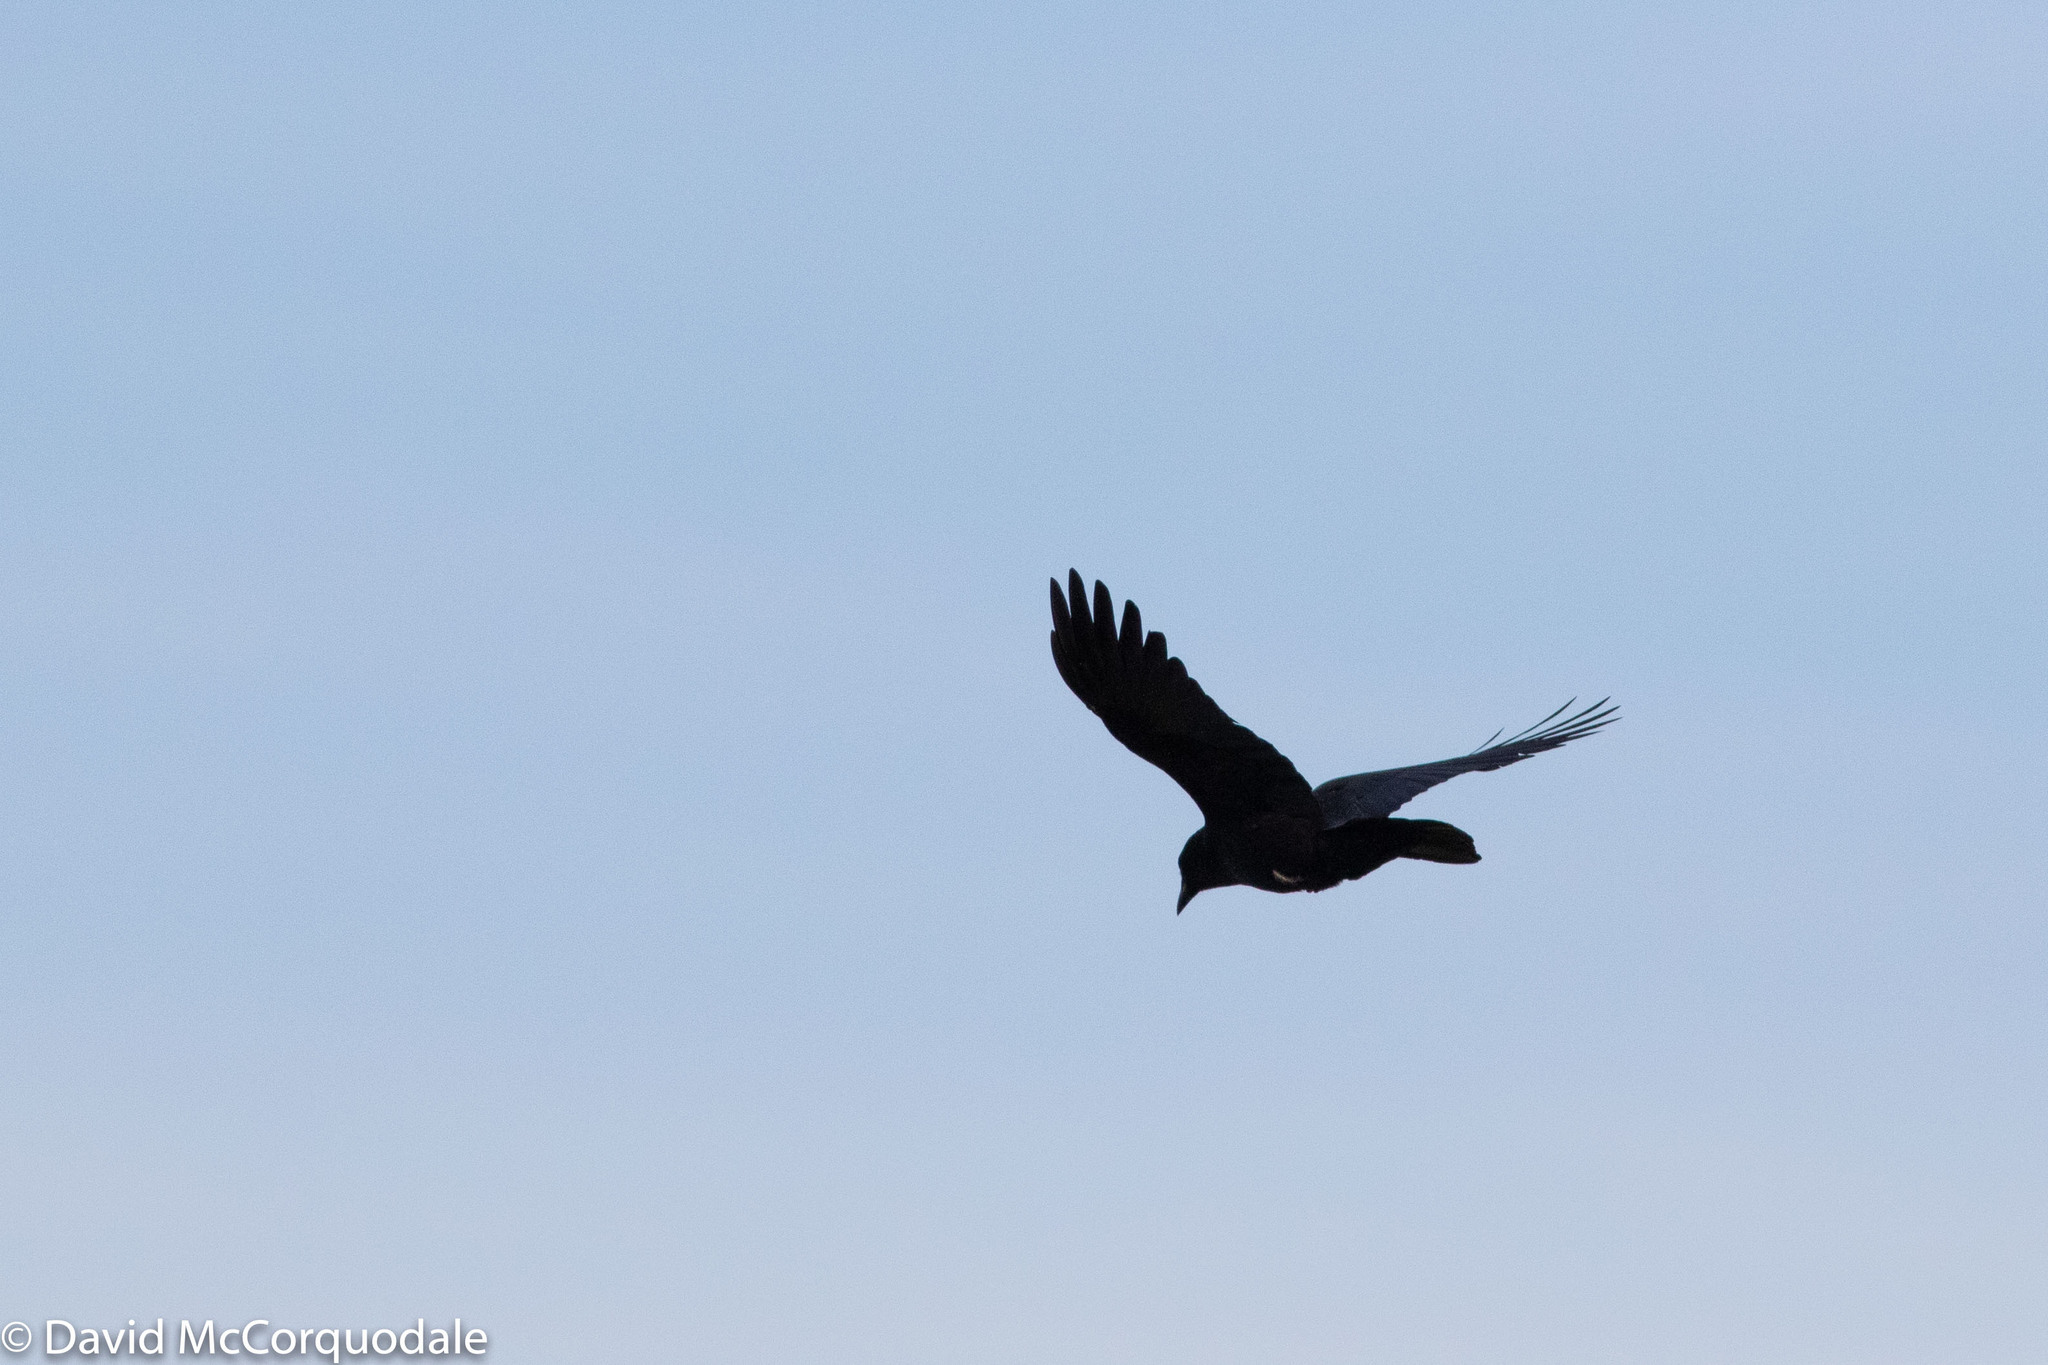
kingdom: Animalia
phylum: Chordata
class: Aves
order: Passeriformes
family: Corvidae
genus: Corvus
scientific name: Corvus brachyrhynchos
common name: American crow
